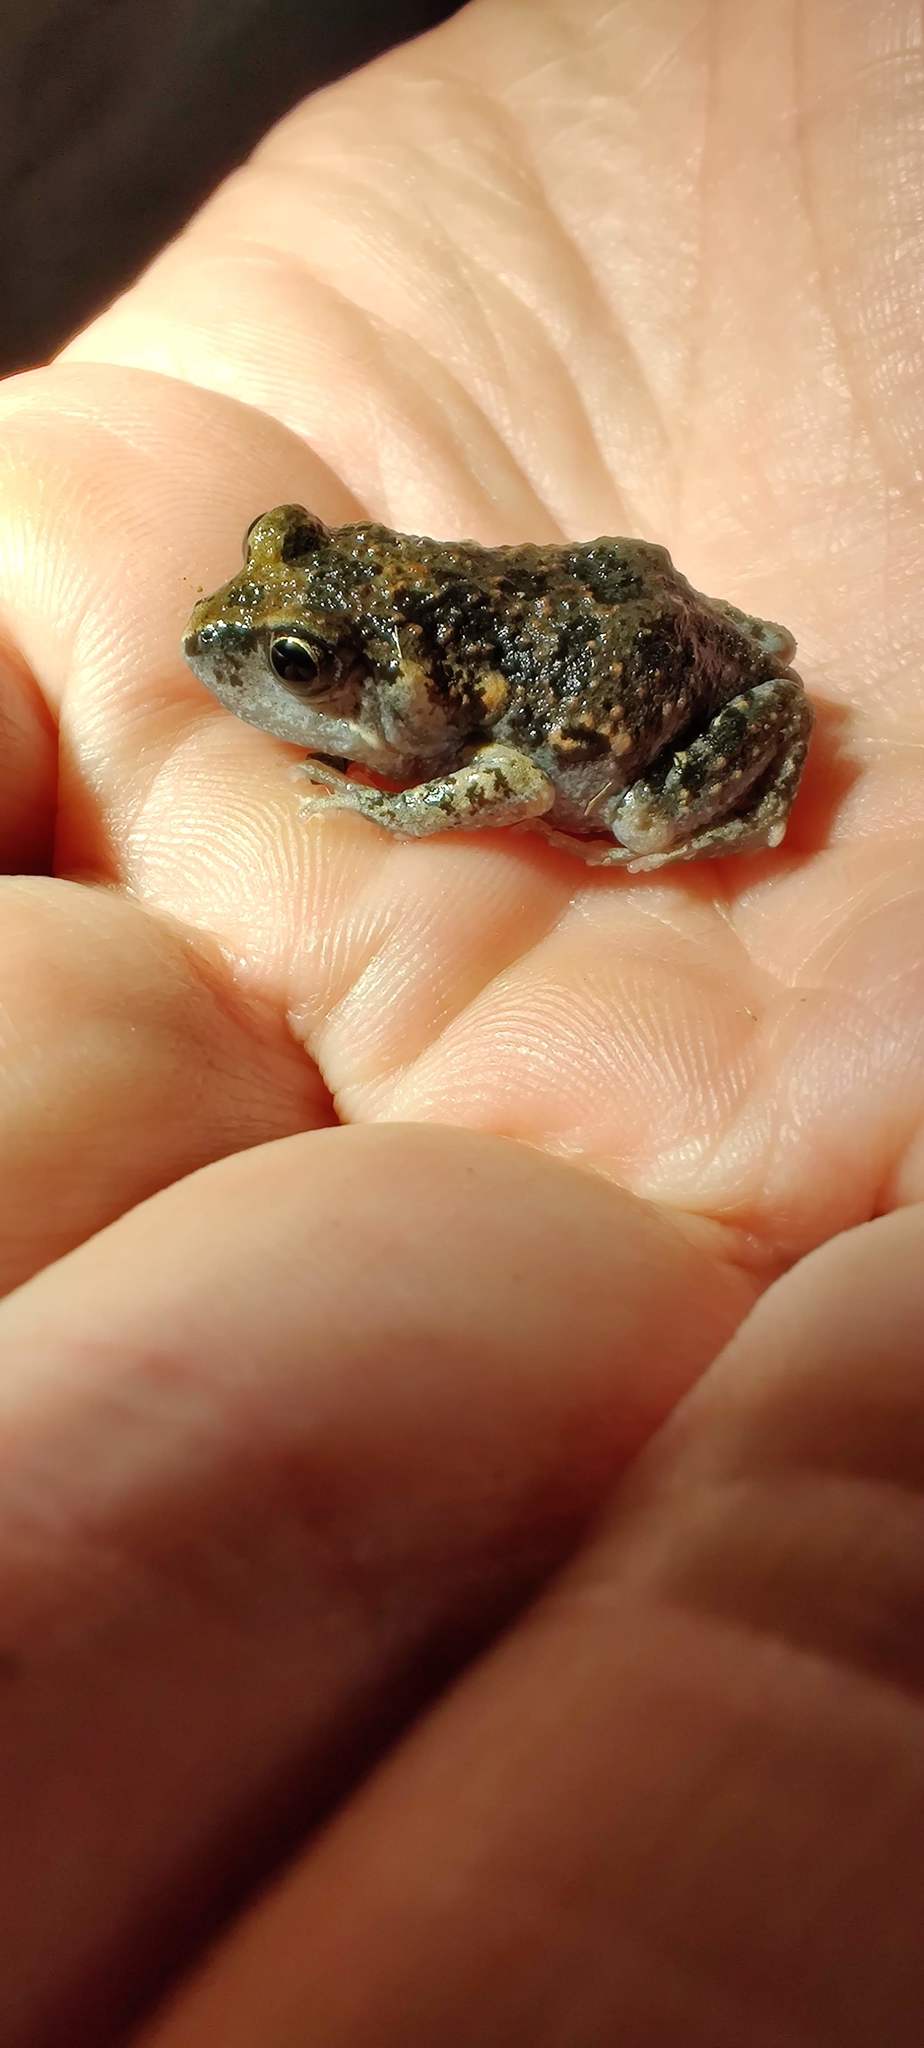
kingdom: Animalia
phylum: Chordata
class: Amphibia
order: Anura
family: Myobatrachidae
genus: Uperoleia
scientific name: Uperoleia laevigata
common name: Smooth toadlet
